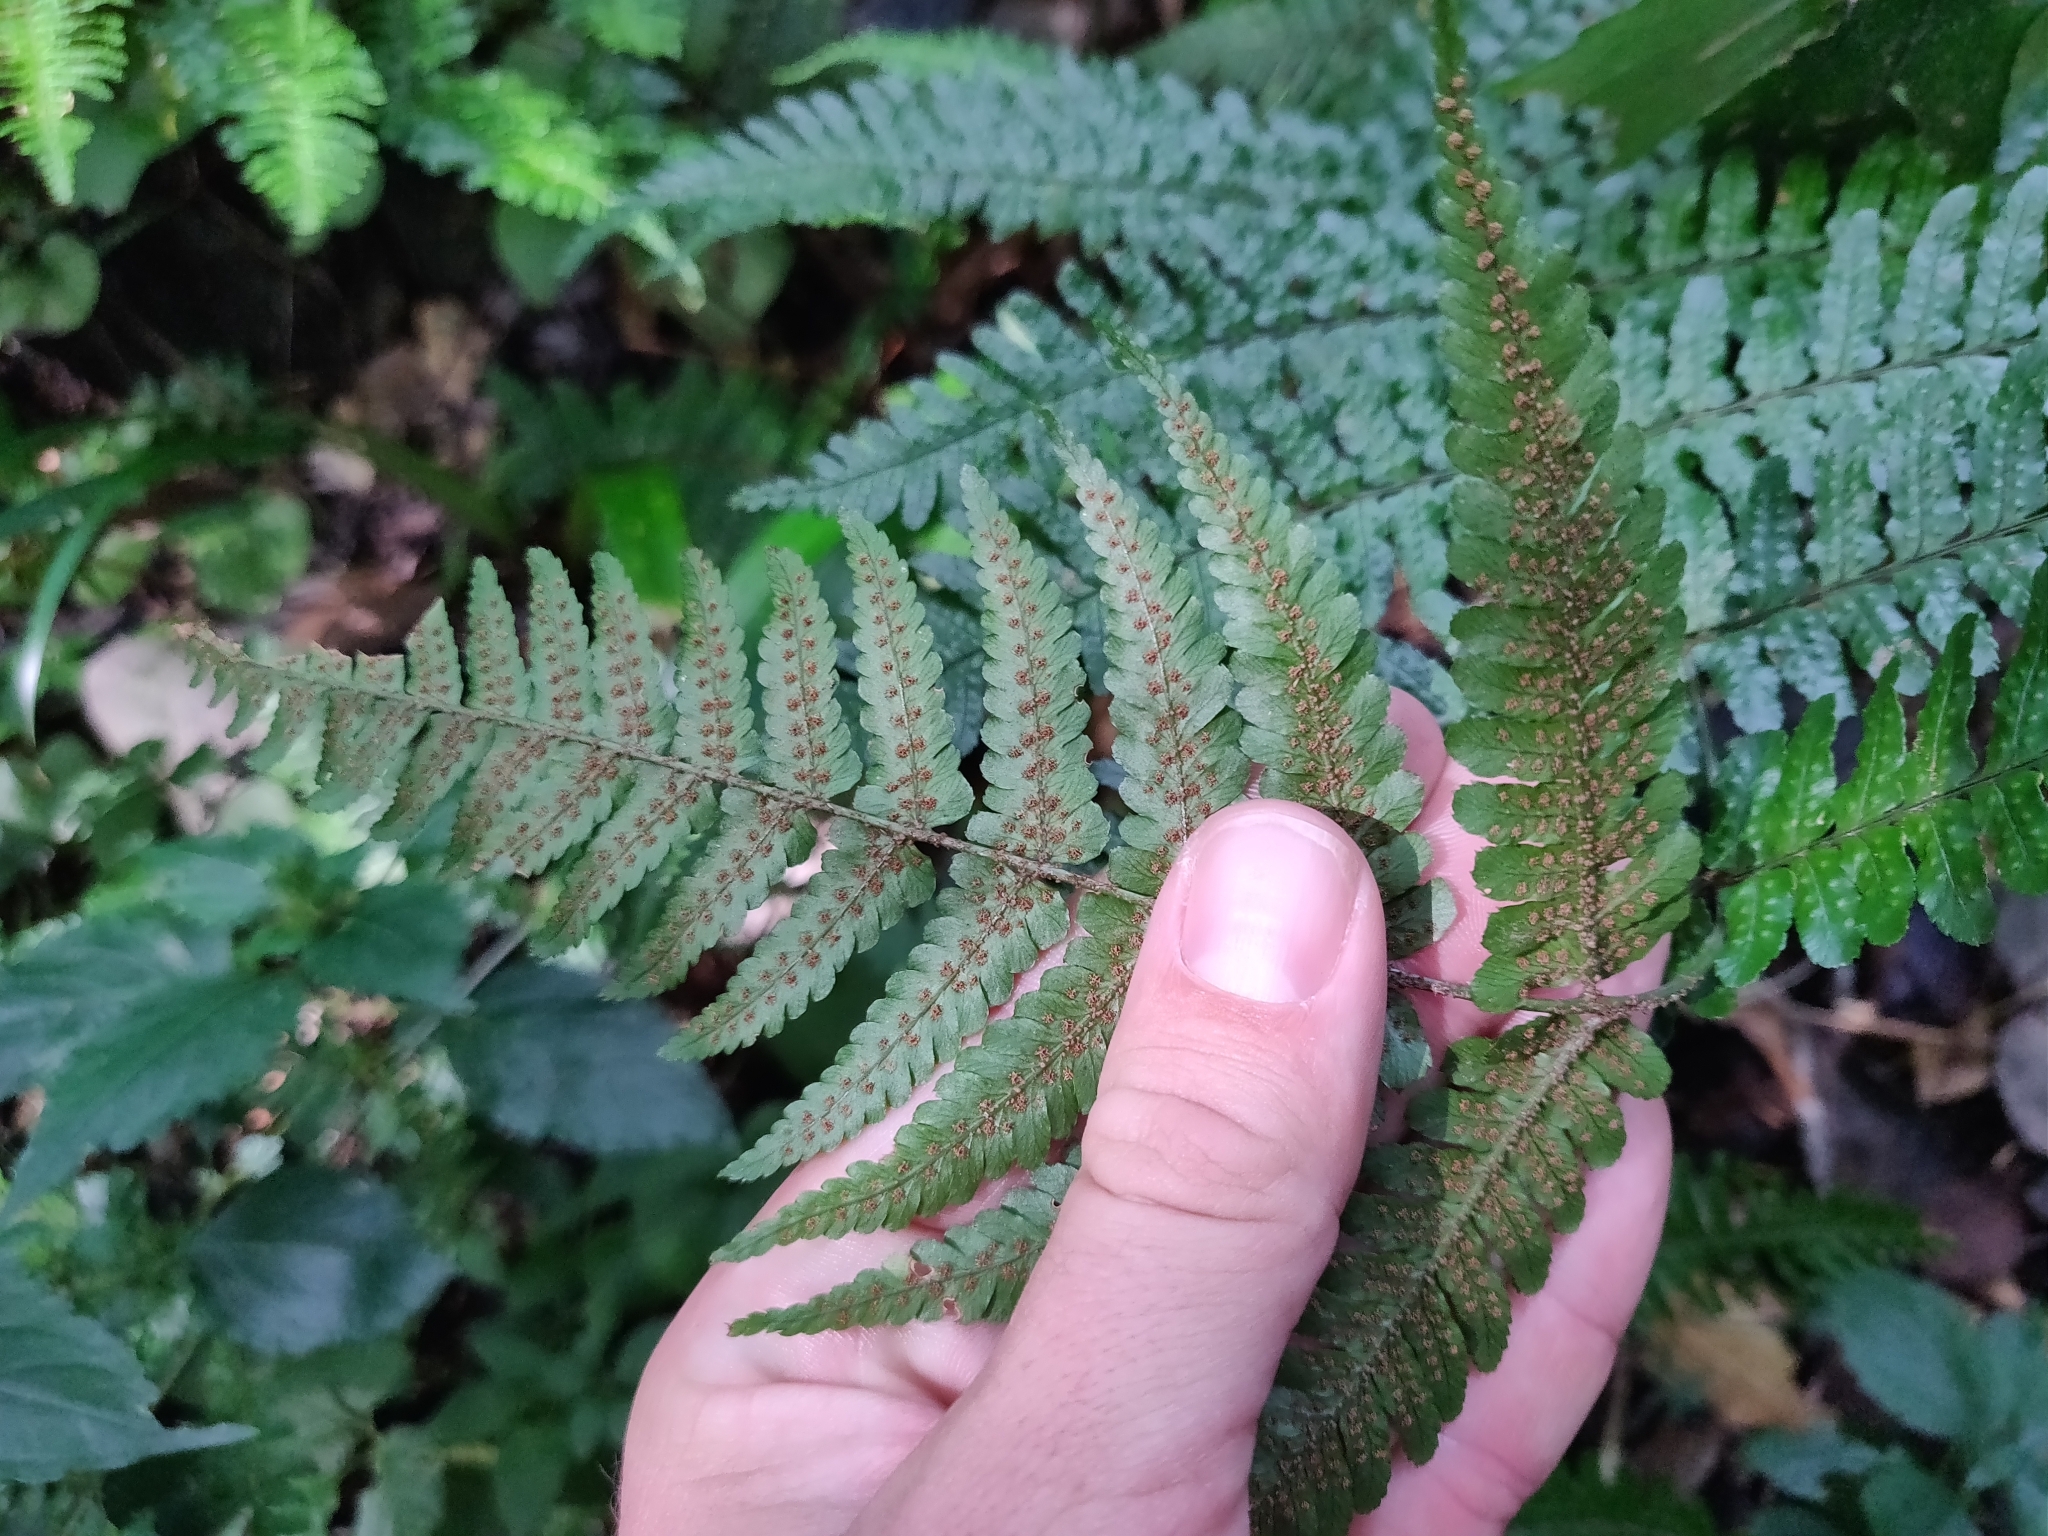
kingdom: Plantae
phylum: Tracheophyta
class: Polypodiopsida
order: Polypodiales
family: Dryopteridaceae
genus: Dryopteris
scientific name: Dryopteris erythrosora
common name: Autumn fern
